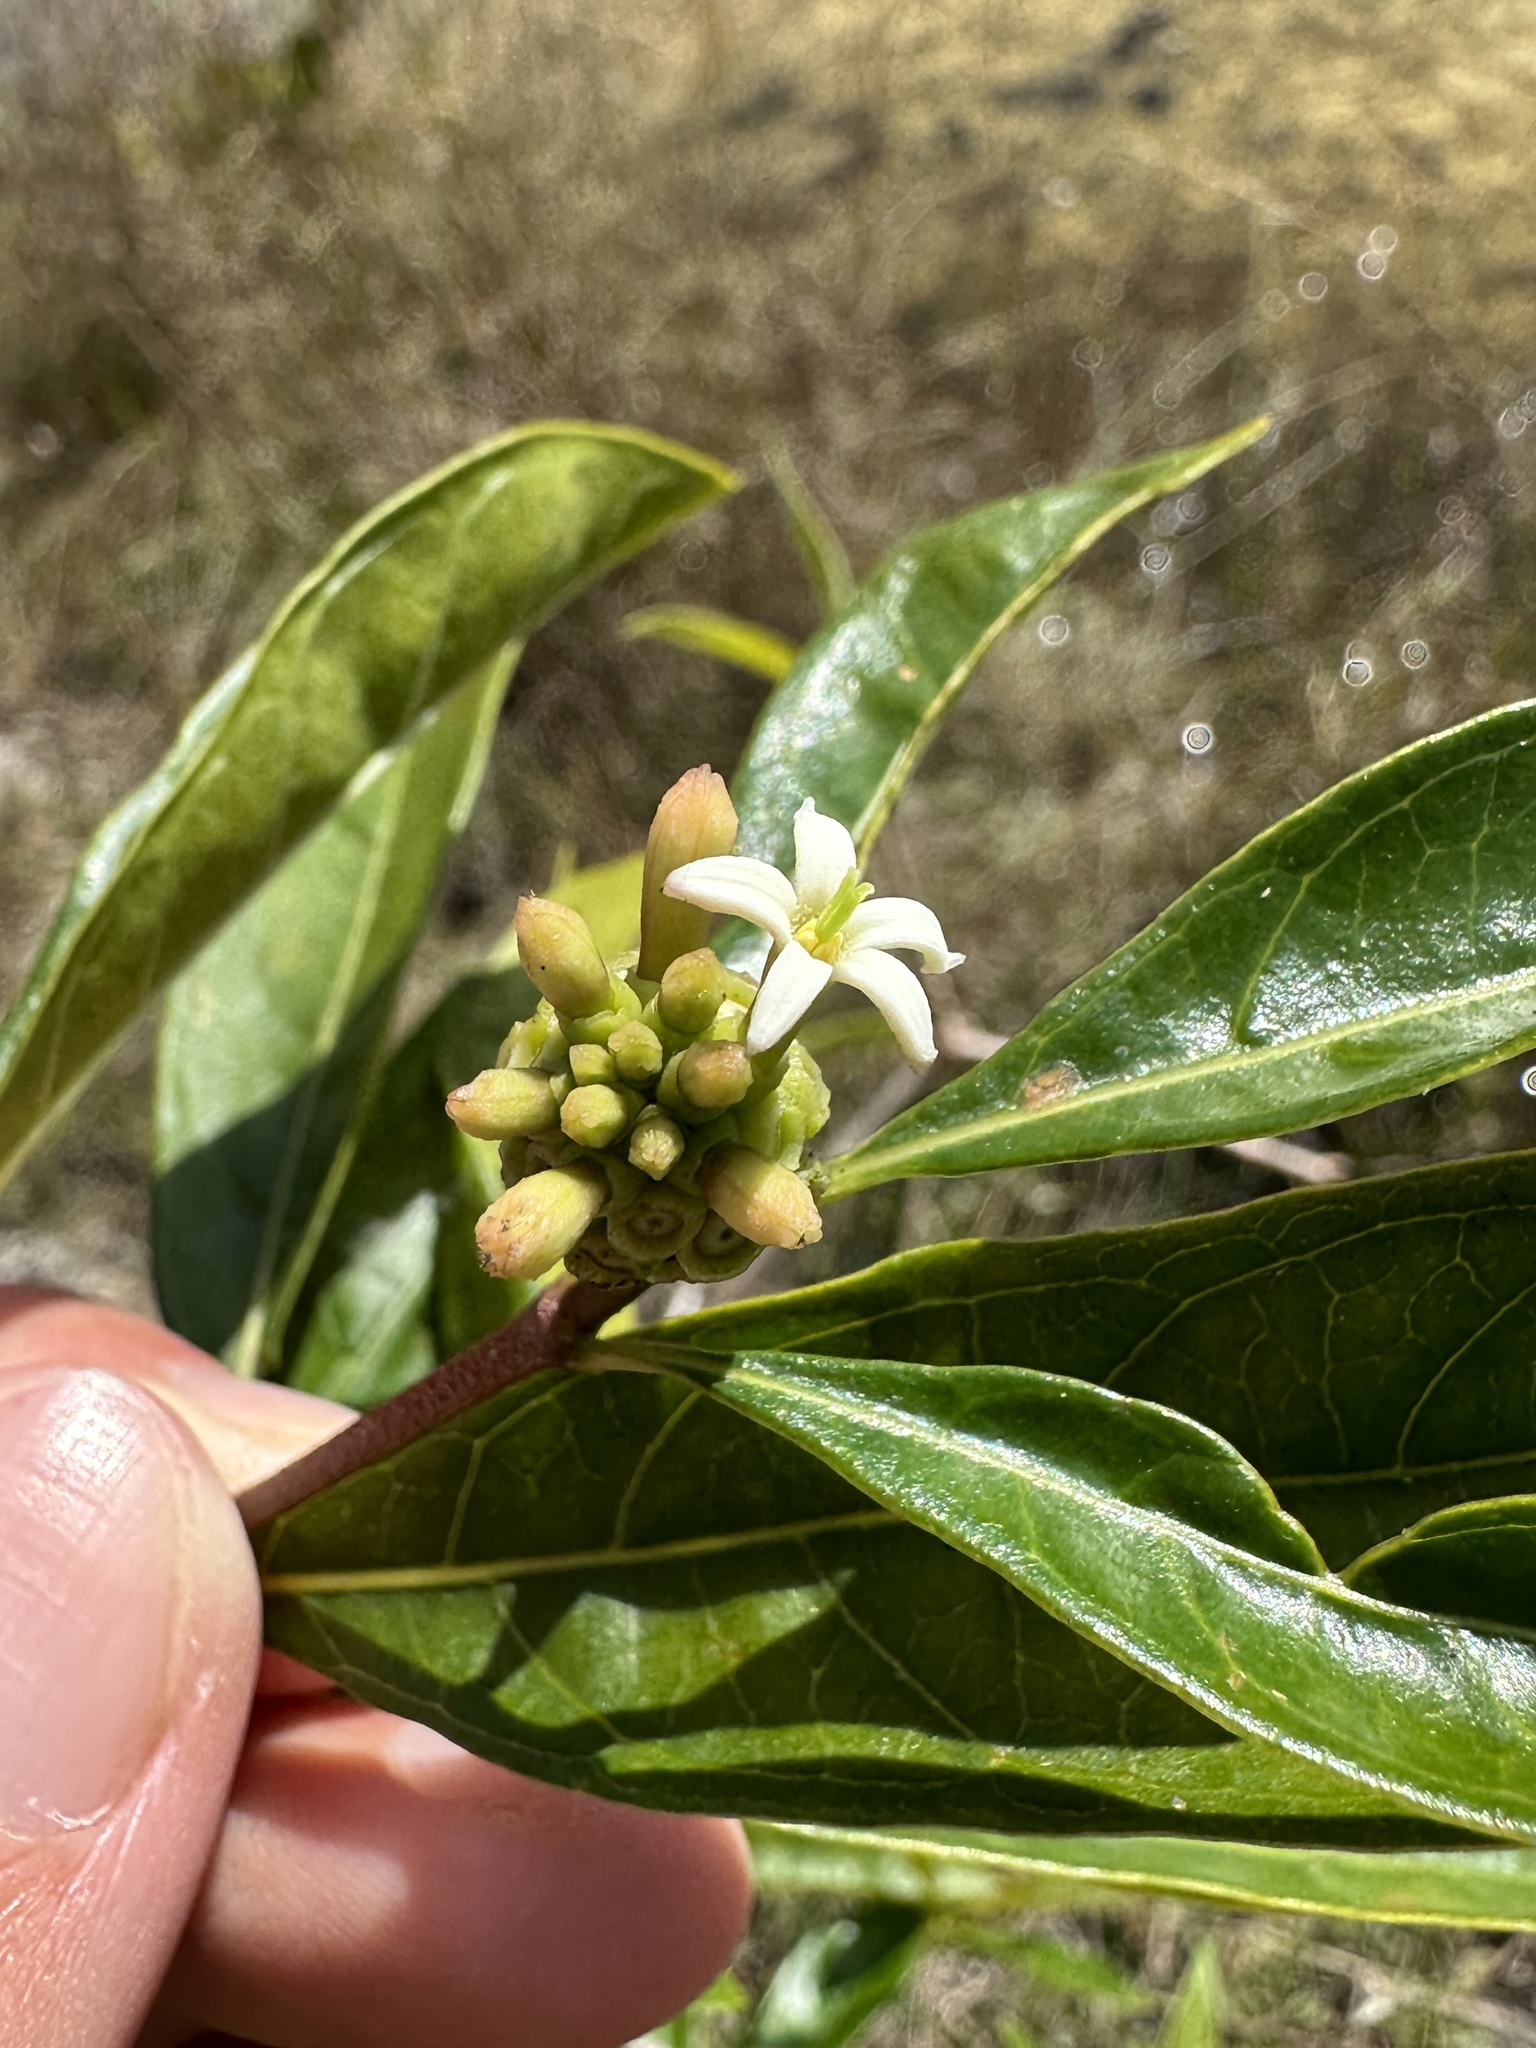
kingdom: Plantae
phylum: Tracheophyta
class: Magnoliopsida
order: Gentianales
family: Rubiaceae
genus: Morinda
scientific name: Morinda royoc
